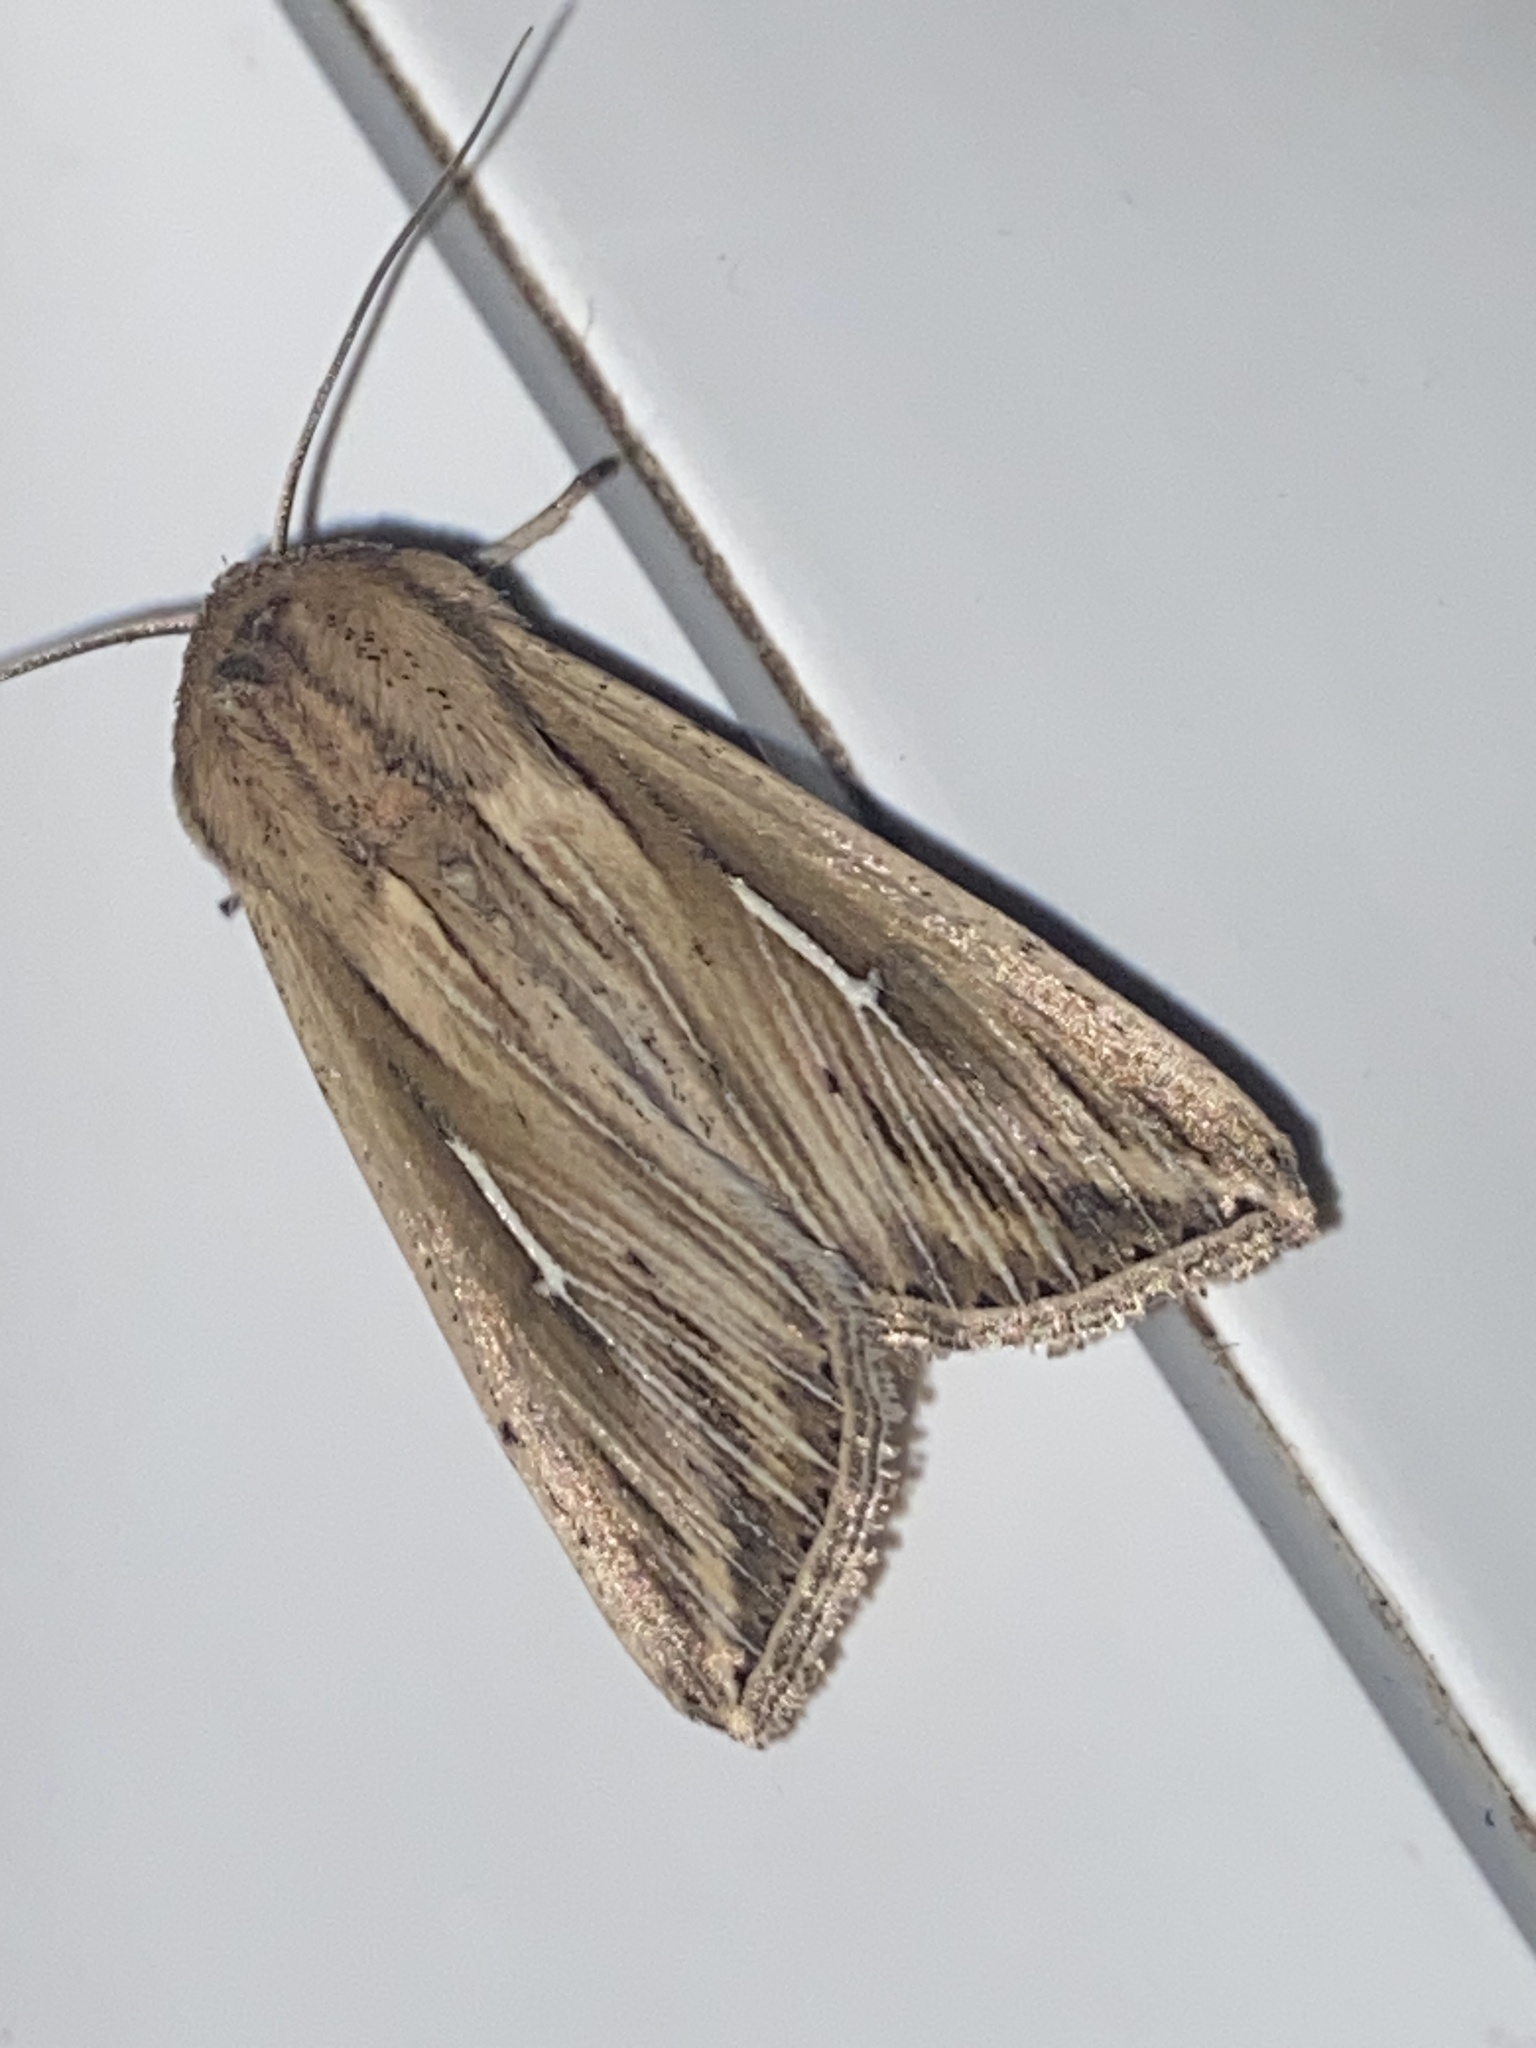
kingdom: Animalia
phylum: Arthropoda
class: Insecta
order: Lepidoptera
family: Noctuidae
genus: Mythimna
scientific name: Mythimna l-album
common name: L-album wainscot
